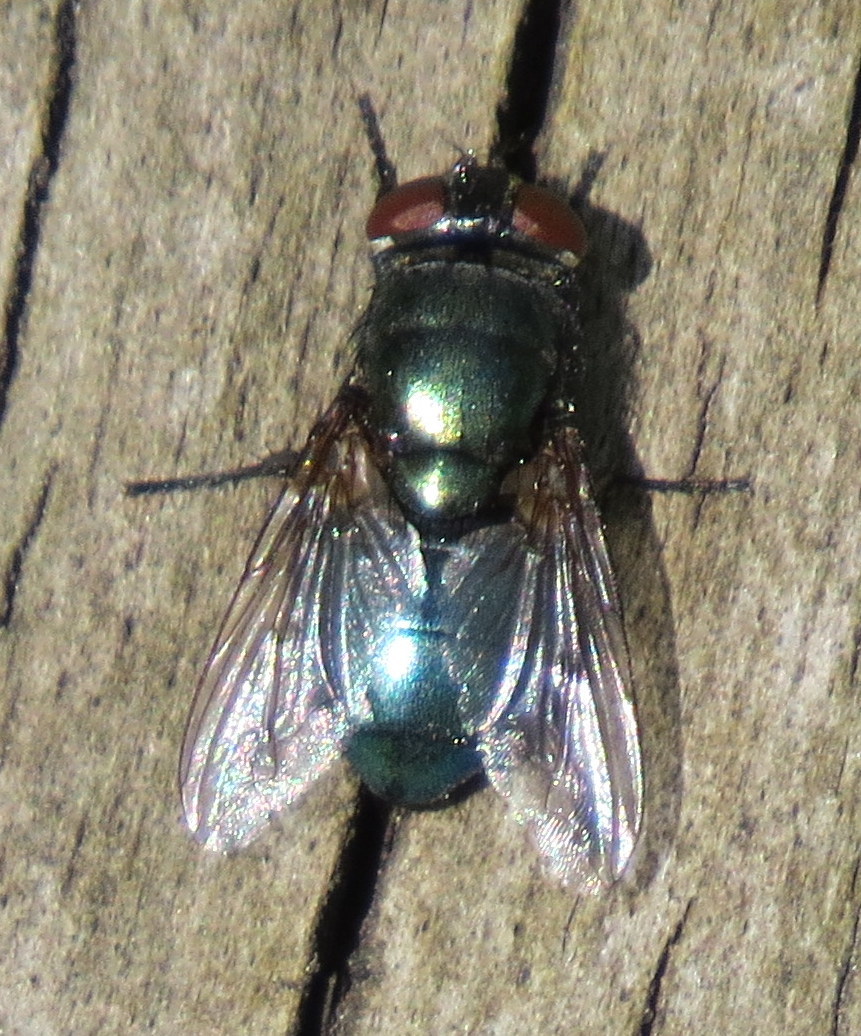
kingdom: Animalia
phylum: Arthropoda
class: Insecta
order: Diptera
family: Calliphoridae
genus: Phormia
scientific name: Phormia regina
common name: Black blow fly
